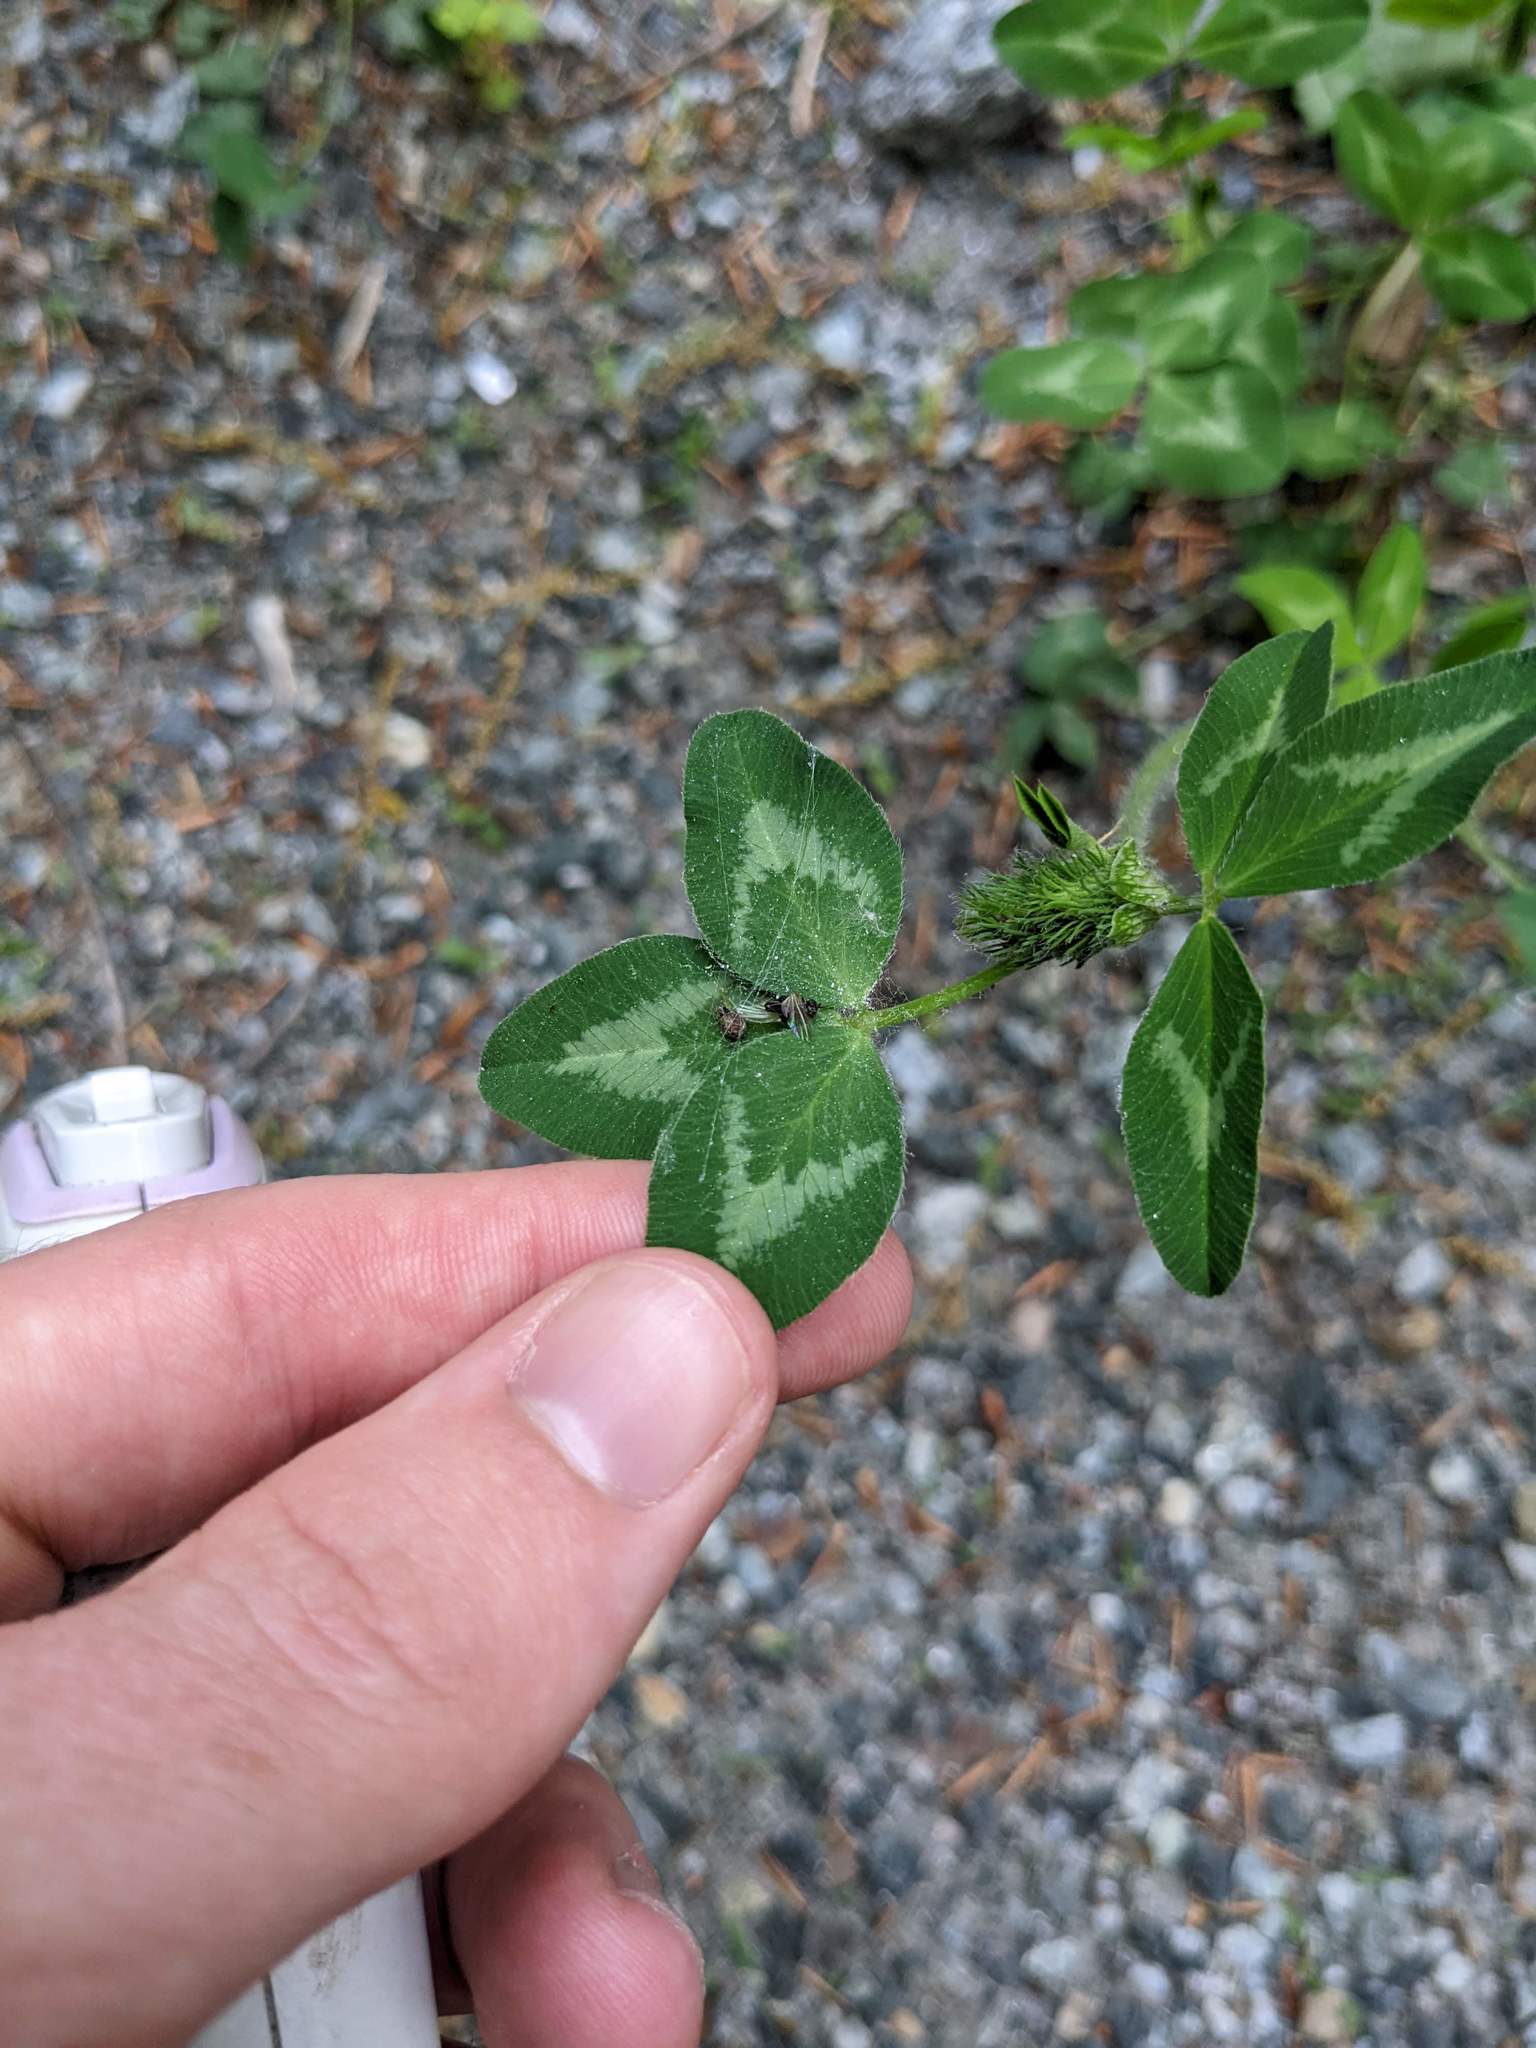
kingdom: Plantae
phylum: Tracheophyta
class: Magnoliopsida
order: Fabales
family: Fabaceae
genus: Trifolium
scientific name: Trifolium pratense
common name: Red clover
